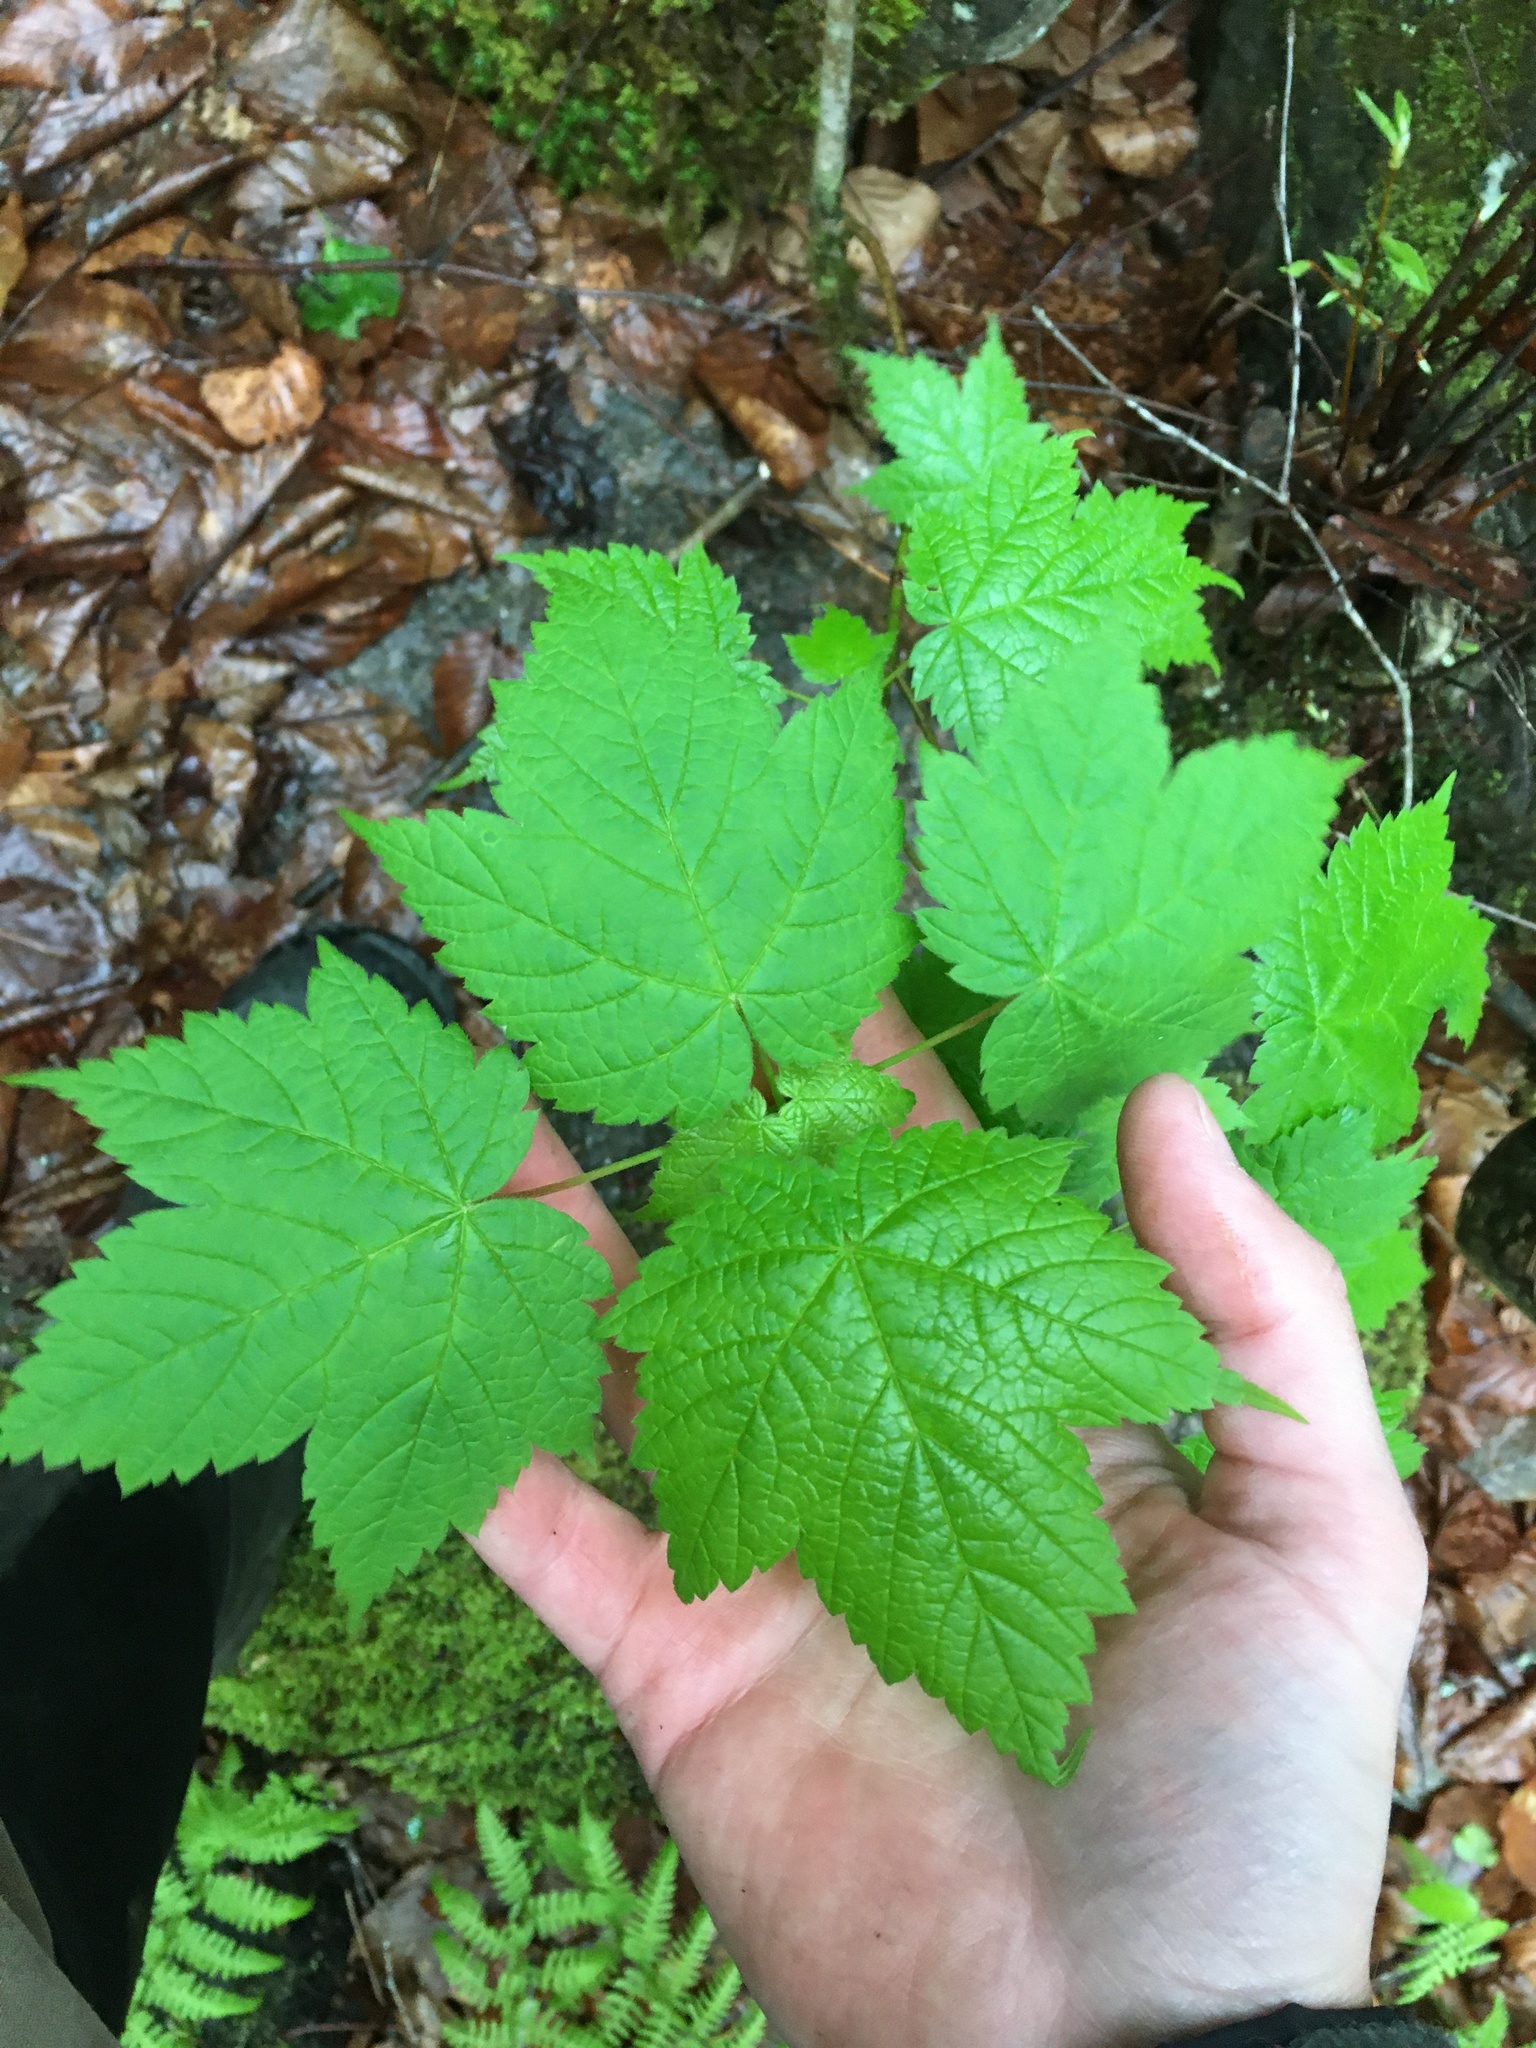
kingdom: Plantae
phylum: Tracheophyta
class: Magnoliopsida
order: Sapindales
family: Sapindaceae
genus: Acer
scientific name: Acer spicatum
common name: Mountain maple
